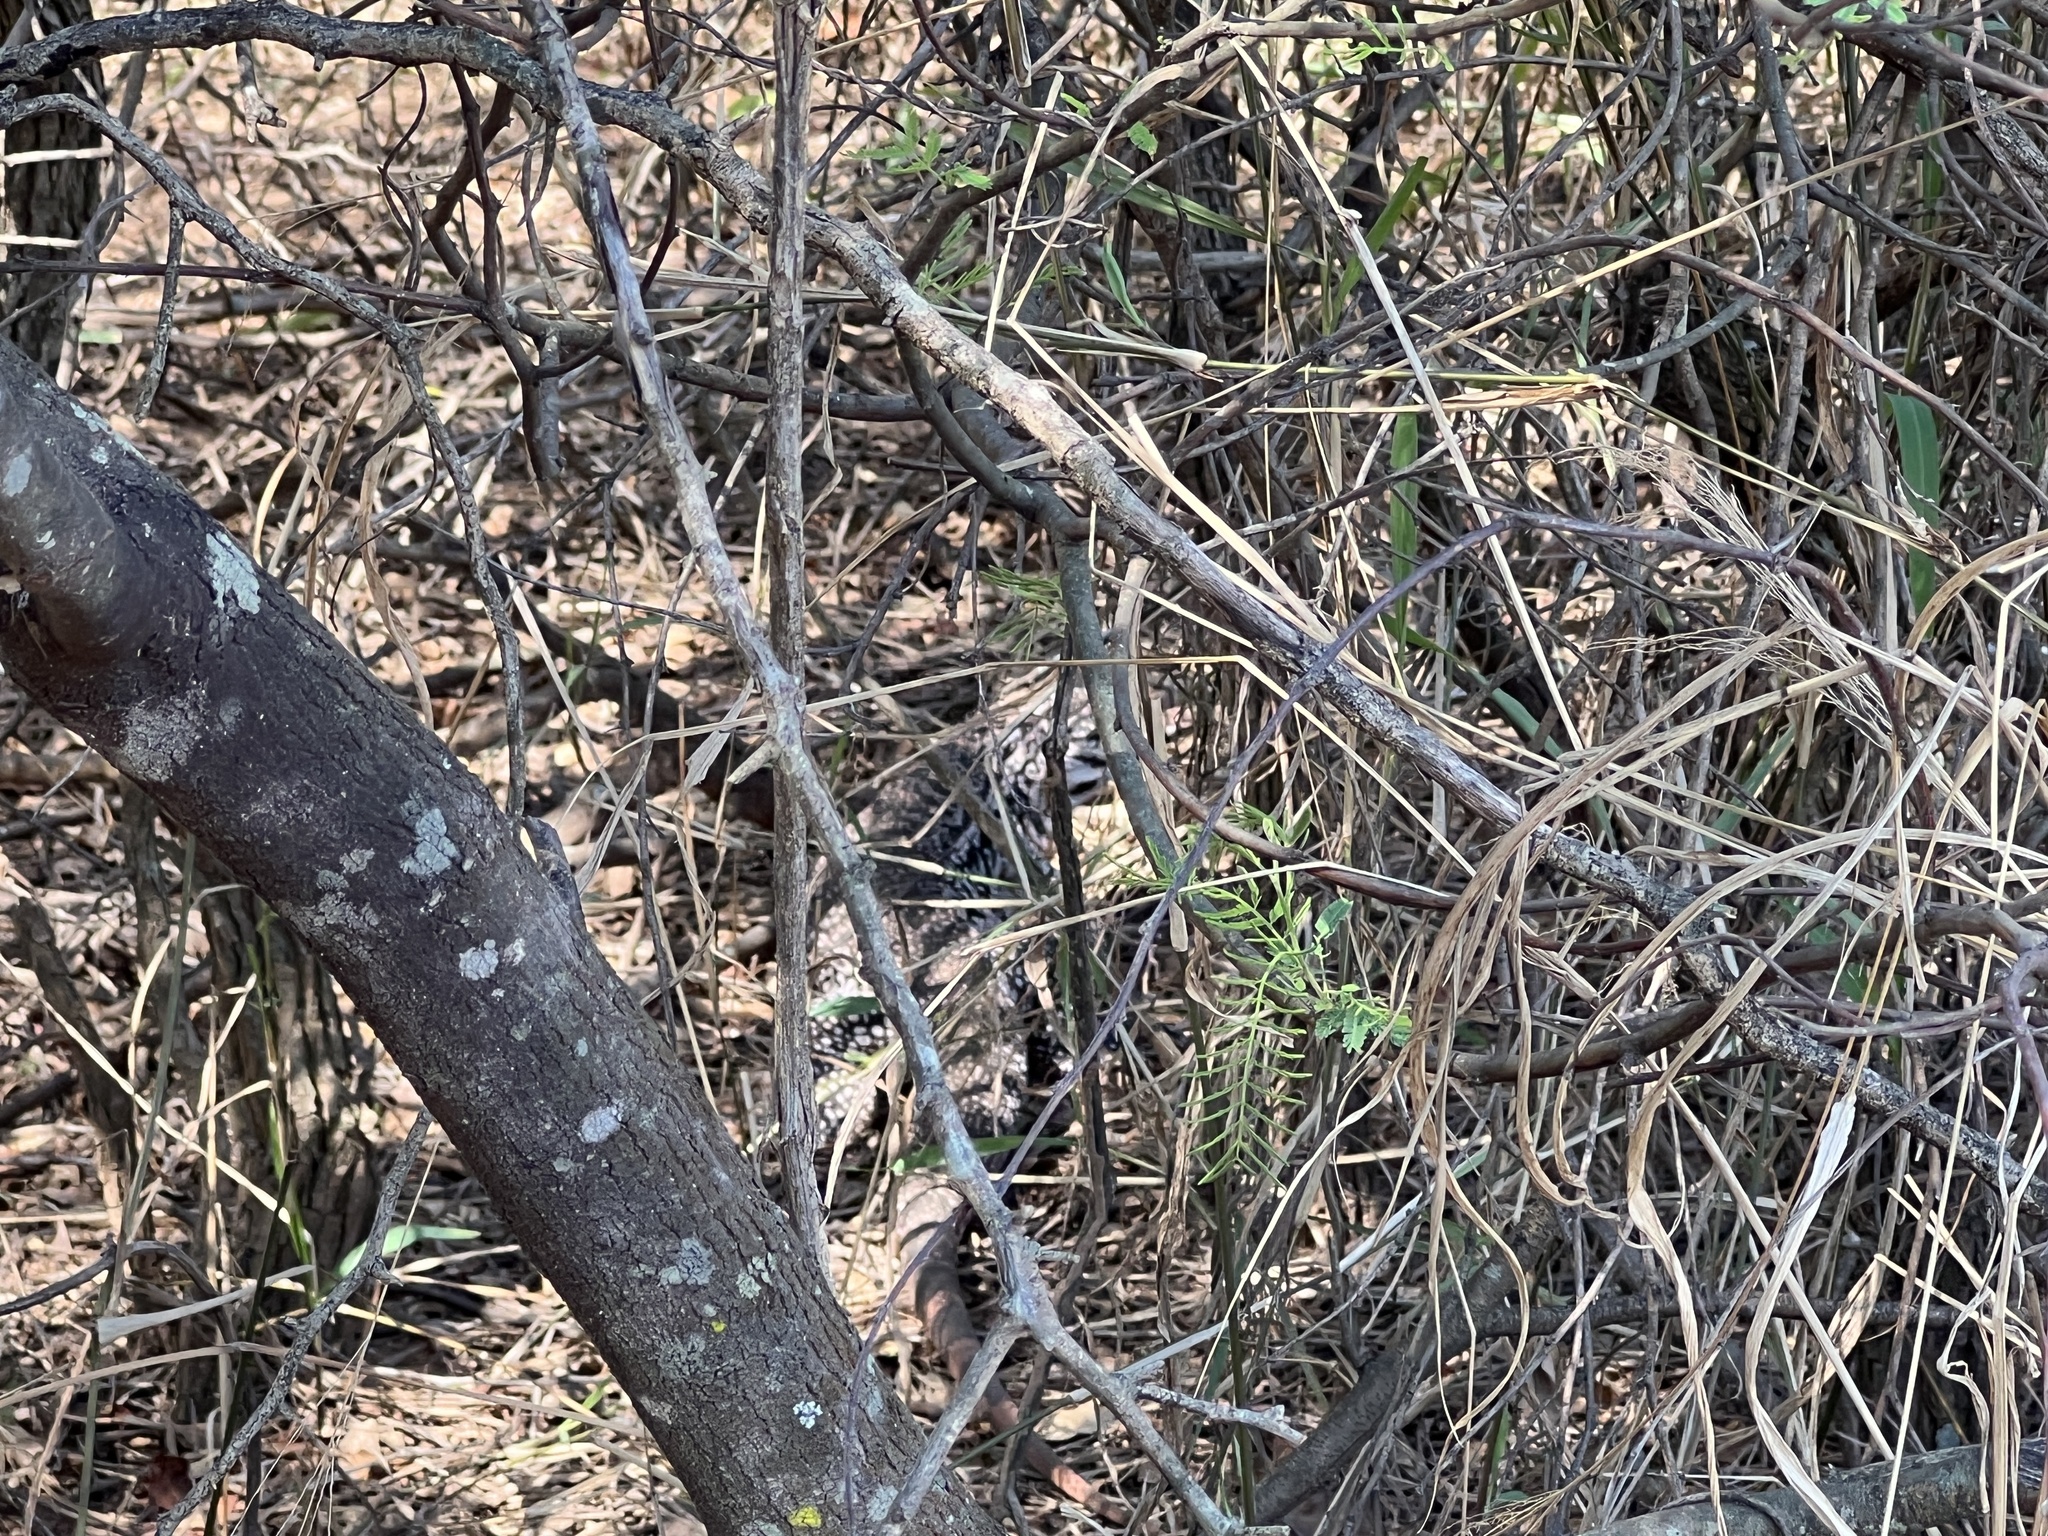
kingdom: Animalia
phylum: Chordata
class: Squamata
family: Teiidae
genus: Salvator
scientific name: Salvator merianae
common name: Argentine black and white tegu
